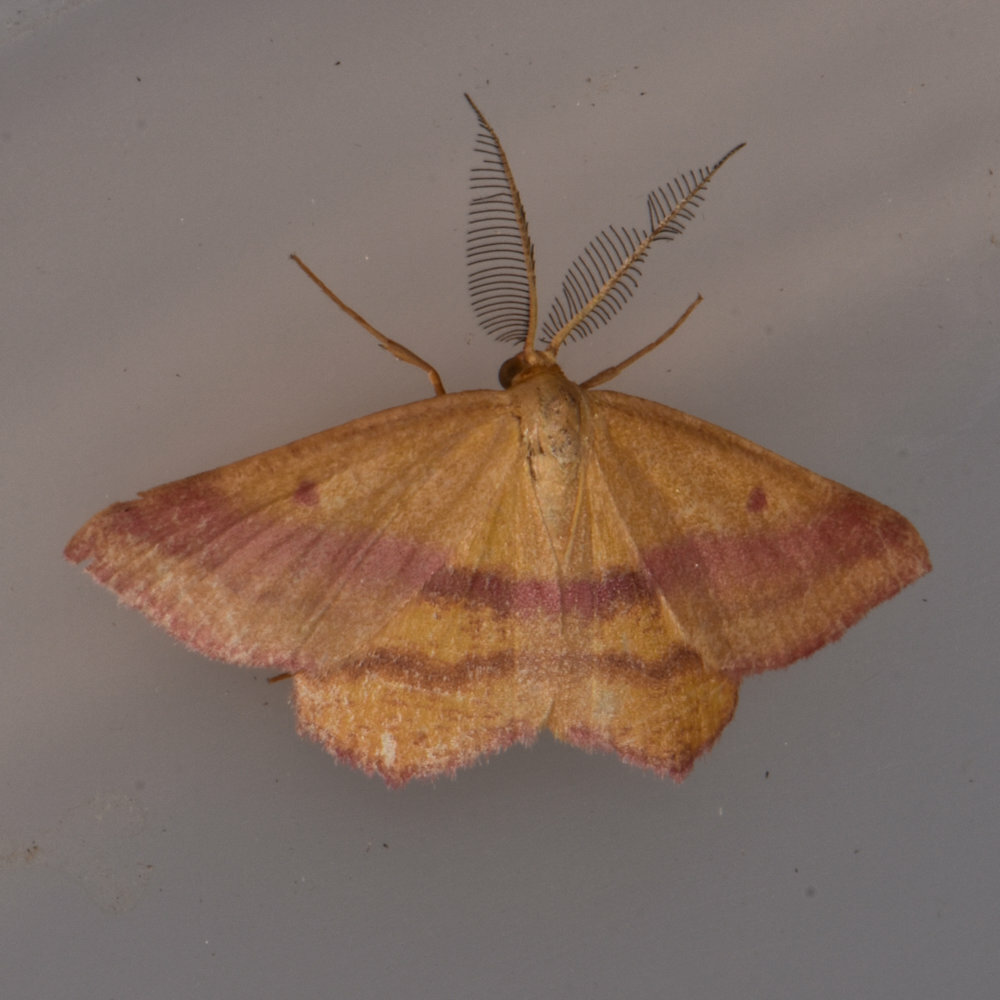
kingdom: Animalia
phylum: Arthropoda
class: Insecta
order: Lepidoptera
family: Geometridae
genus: Haematopis
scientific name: Haematopis grataria
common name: Chickweed geometer
